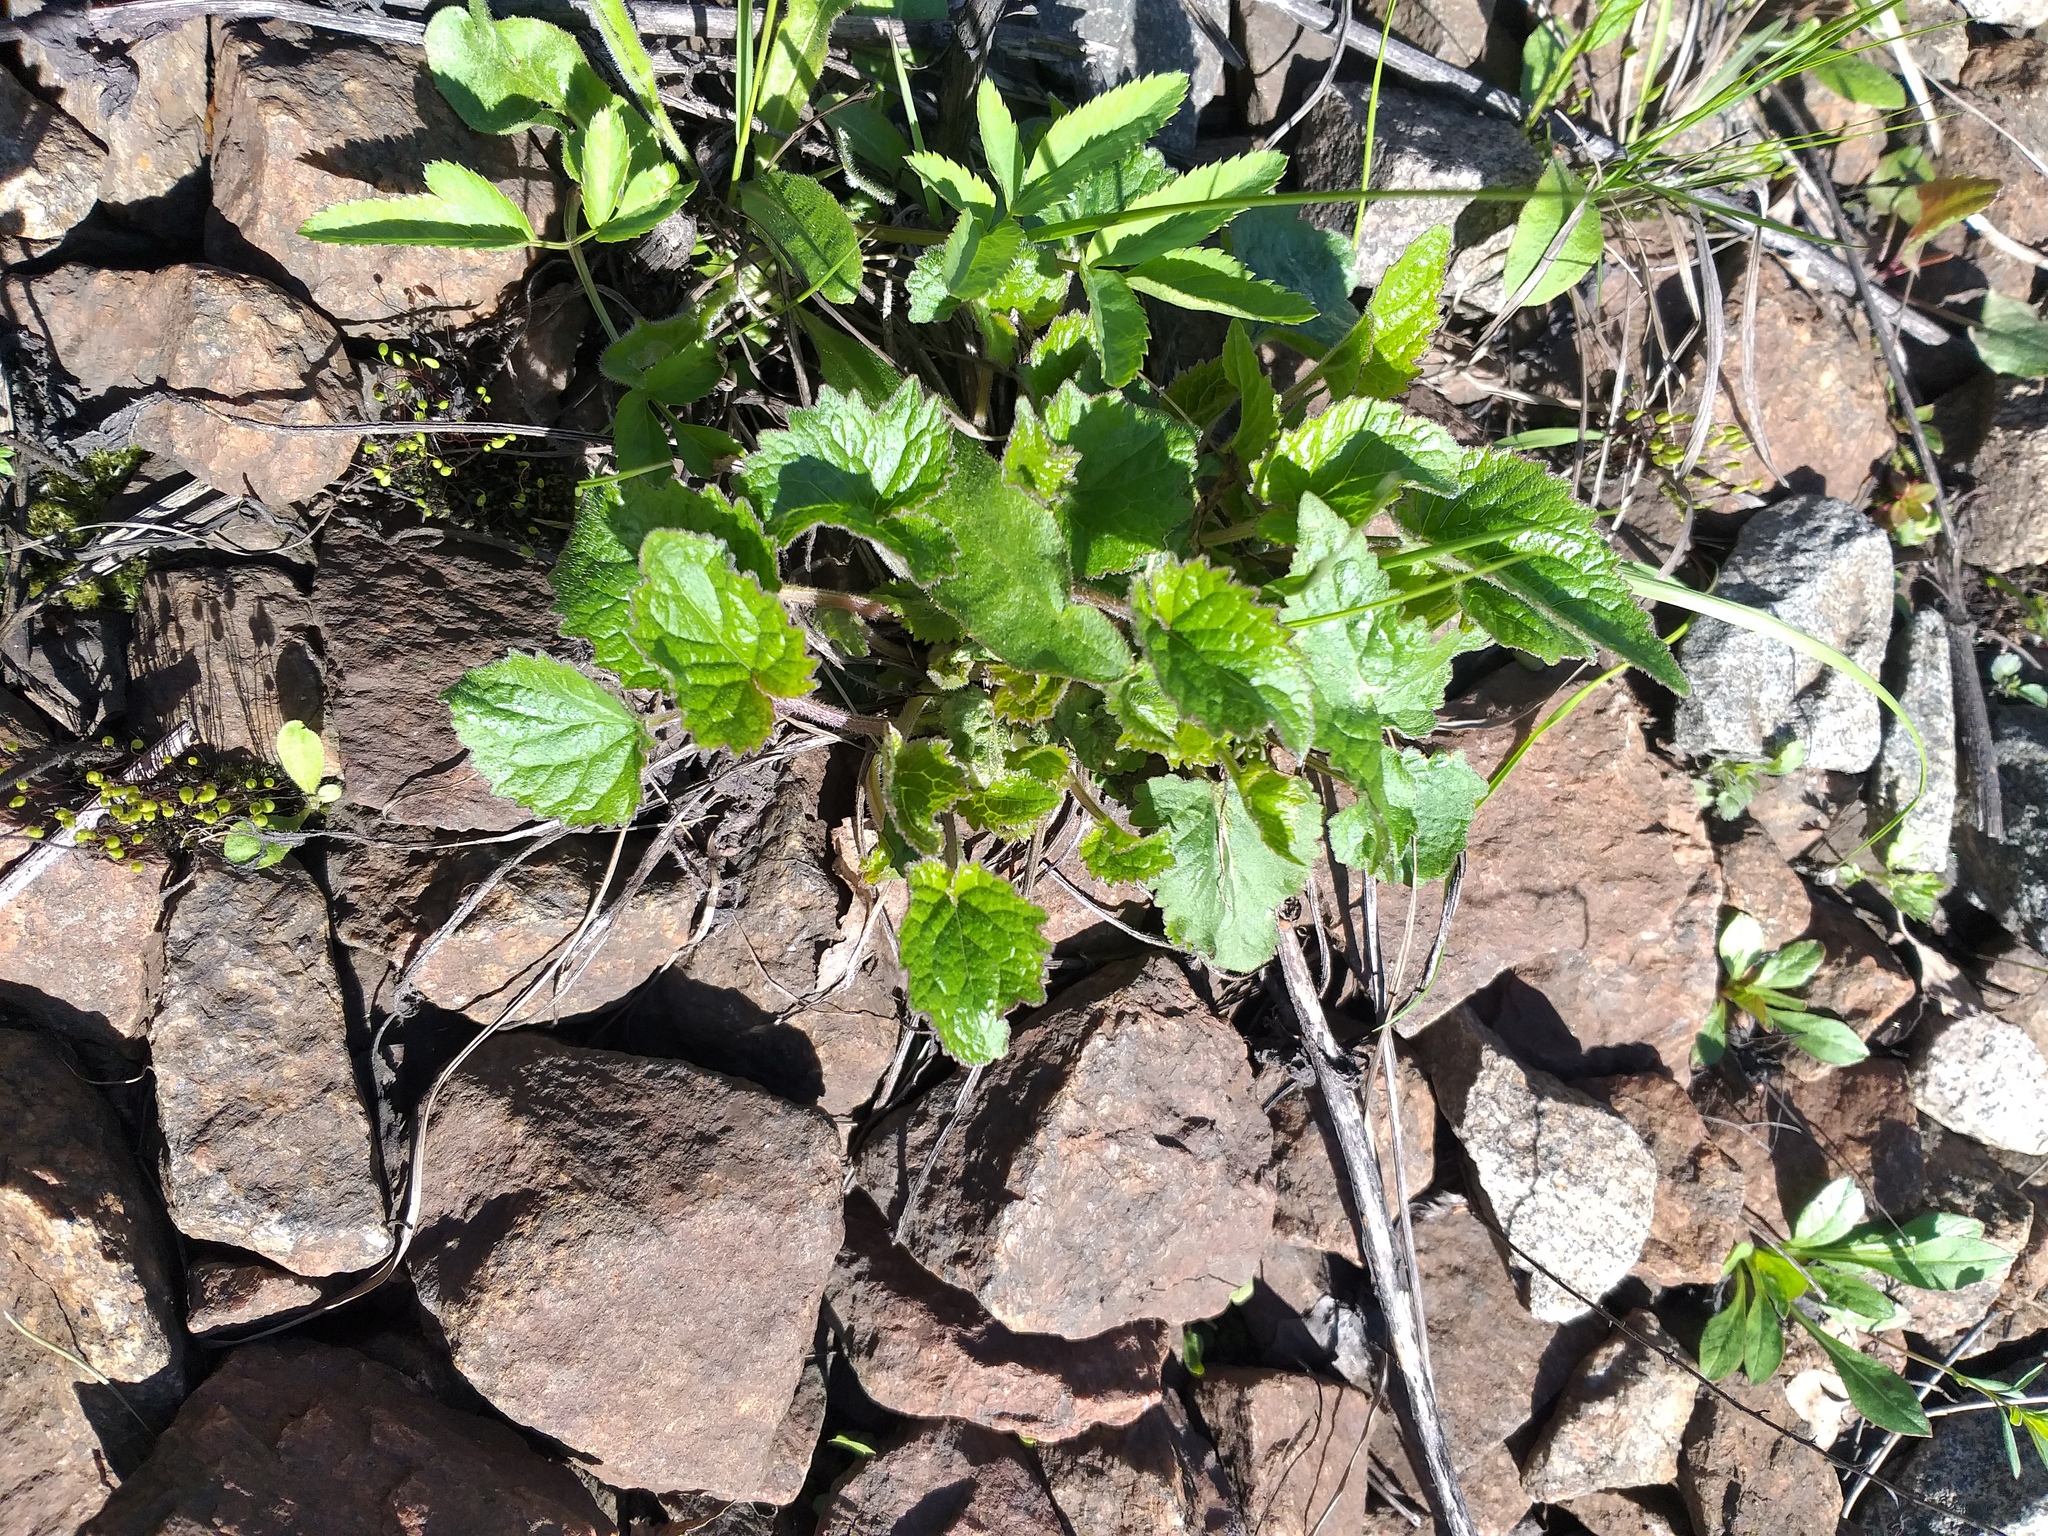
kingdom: Plantae
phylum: Tracheophyta
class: Magnoliopsida
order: Asterales
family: Campanulaceae
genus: Campanula
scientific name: Campanula trachelium
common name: Nettle-leaved bellflower
